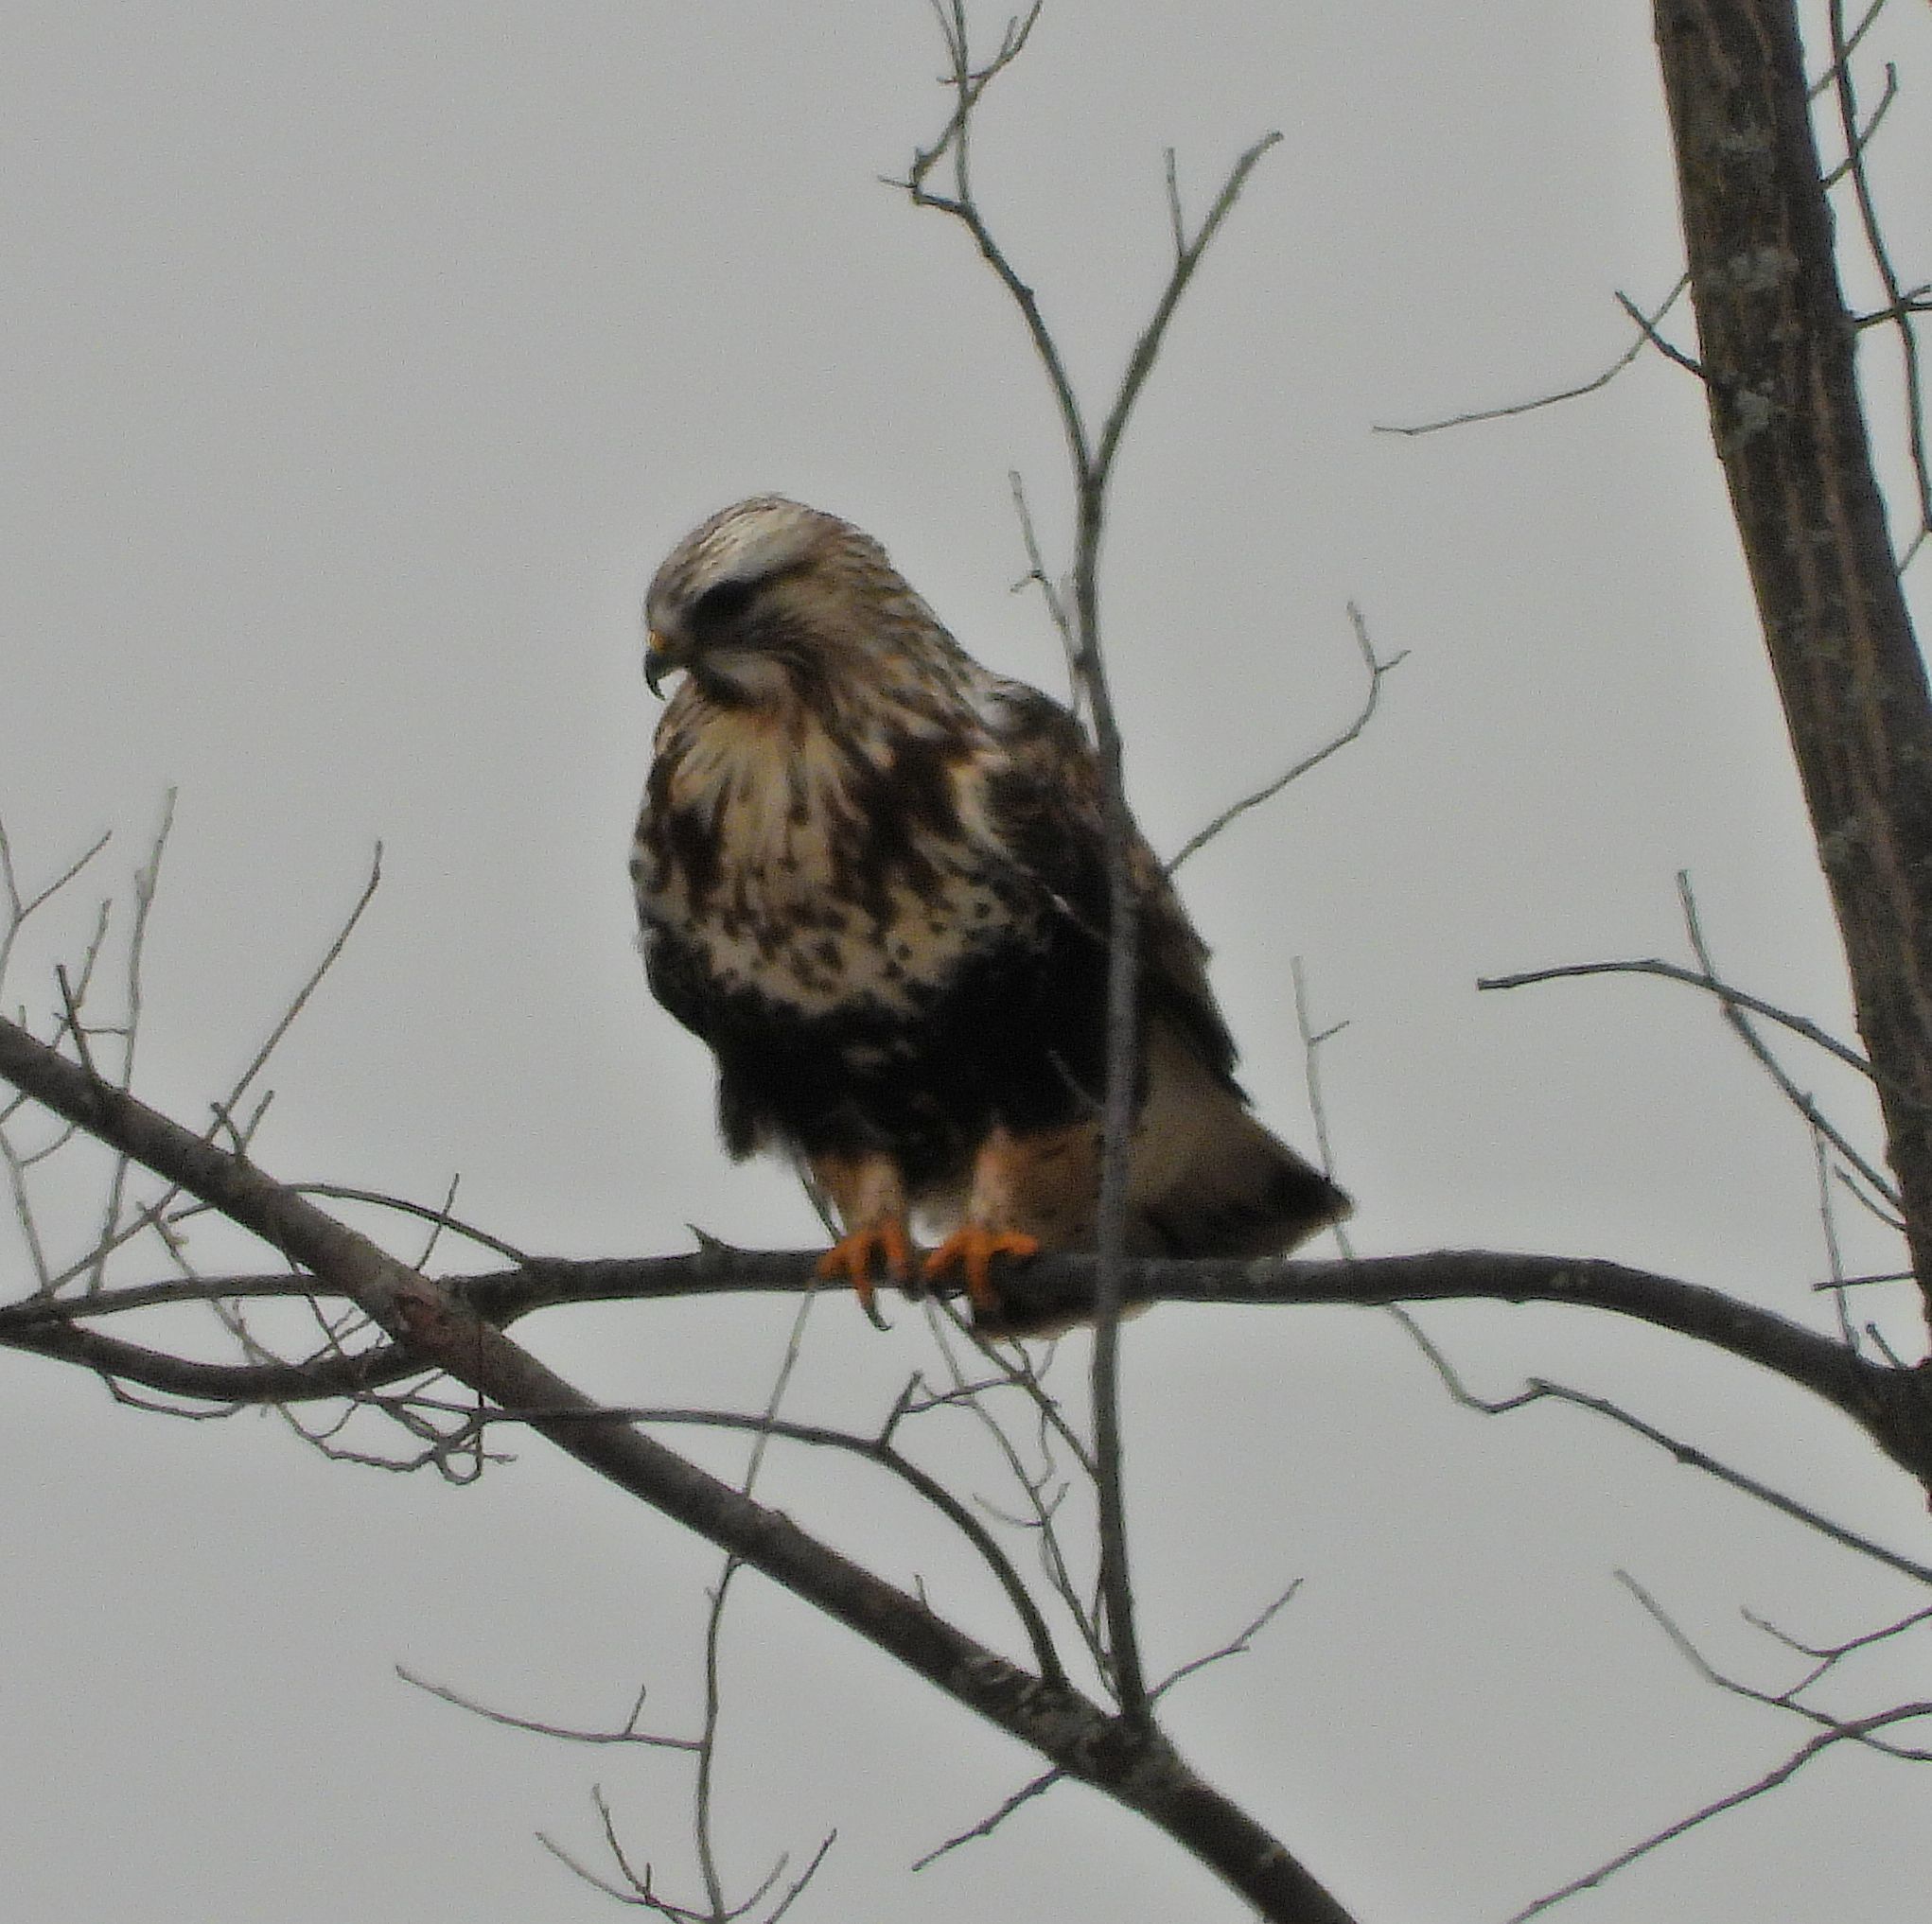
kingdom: Animalia
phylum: Chordata
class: Aves
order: Accipitriformes
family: Accipitridae
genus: Buteo
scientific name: Buteo lagopus
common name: Rough-legged buzzard
